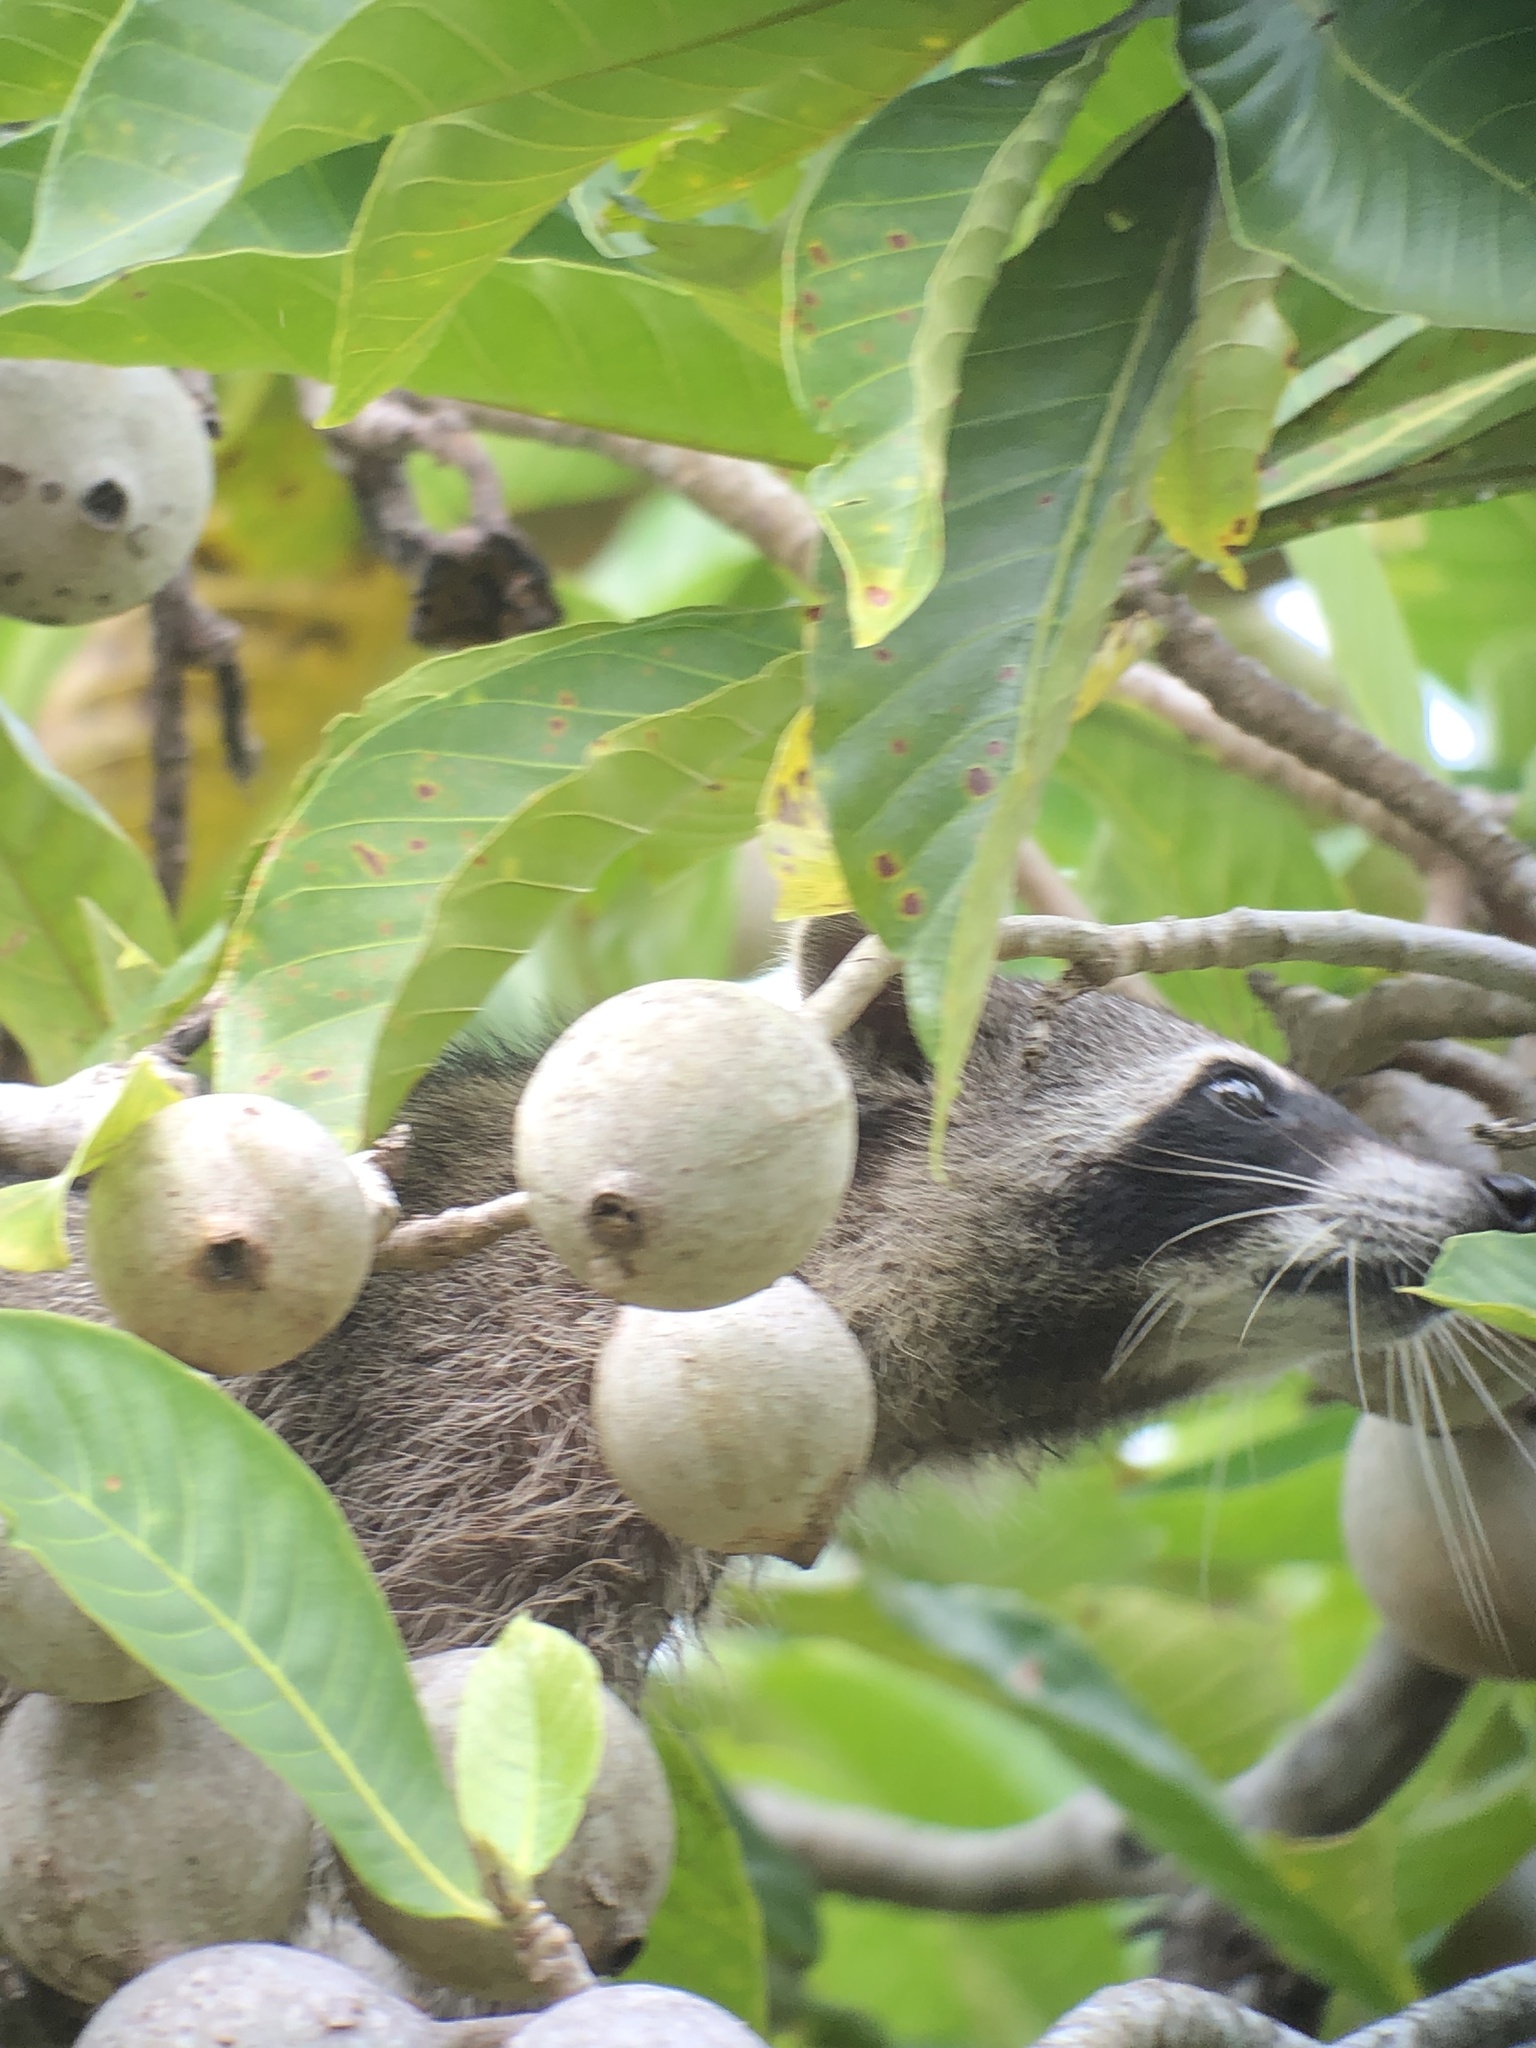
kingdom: Animalia
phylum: Chordata
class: Mammalia
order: Carnivora
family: Procyonidae
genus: Procyon
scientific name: Procyon lotor
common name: Raccoon
